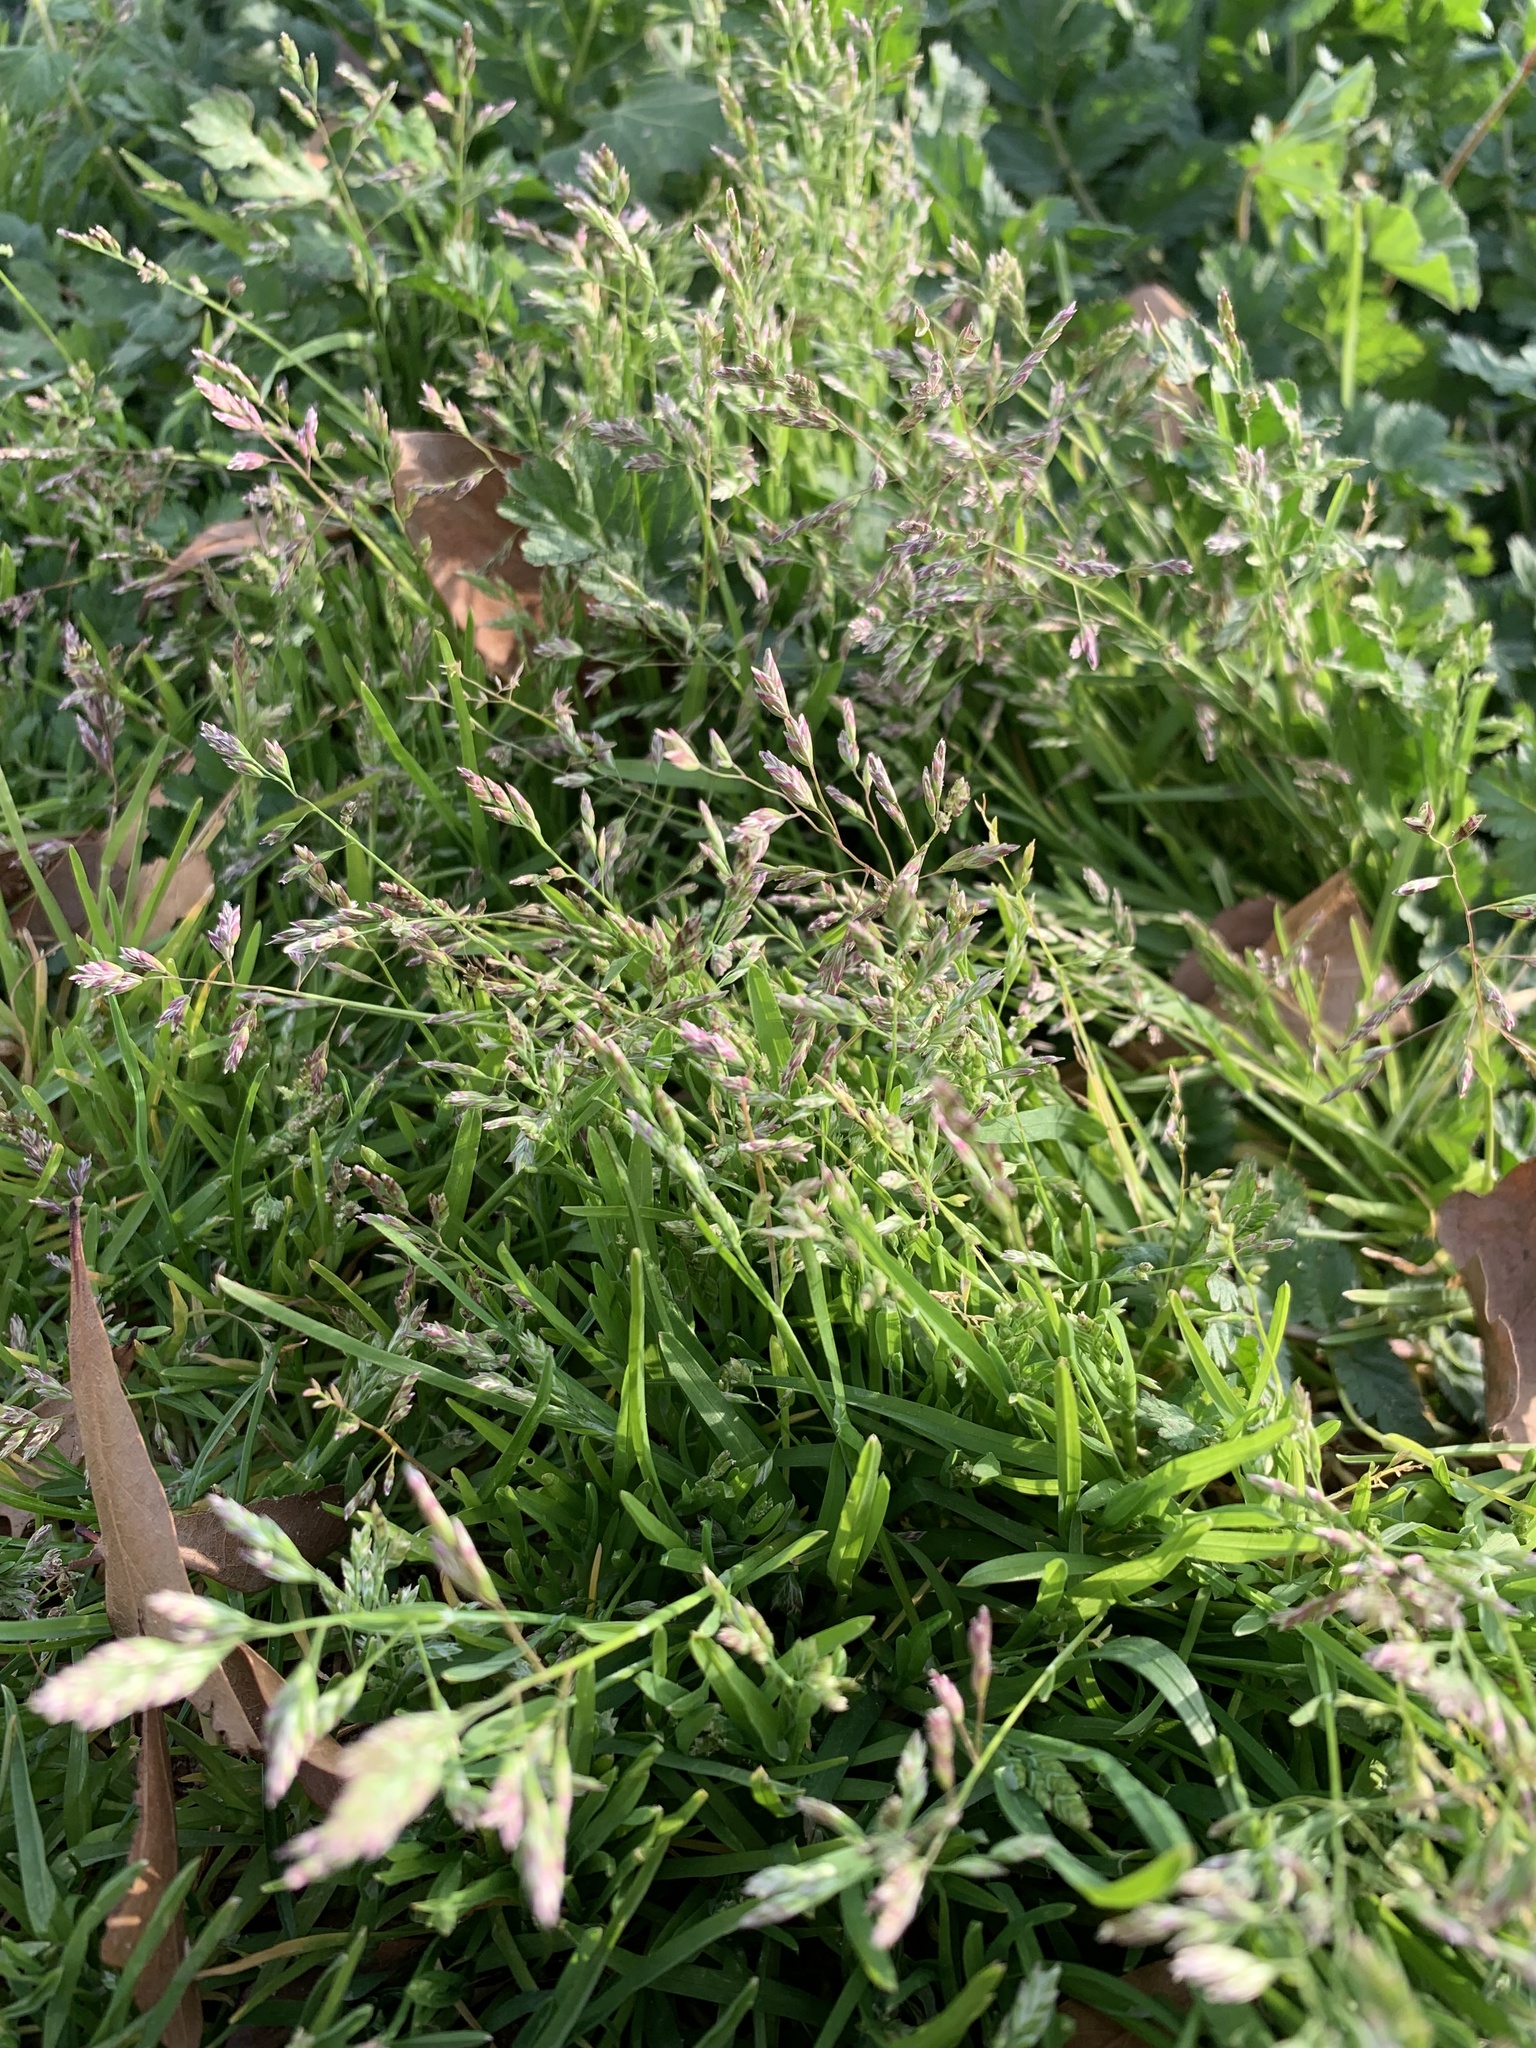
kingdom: Plantae
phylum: Tracheophyta
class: Liliopsida
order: Poales
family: Poaceae
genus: Poa
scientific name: Poa annua
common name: Annual bluegrass
